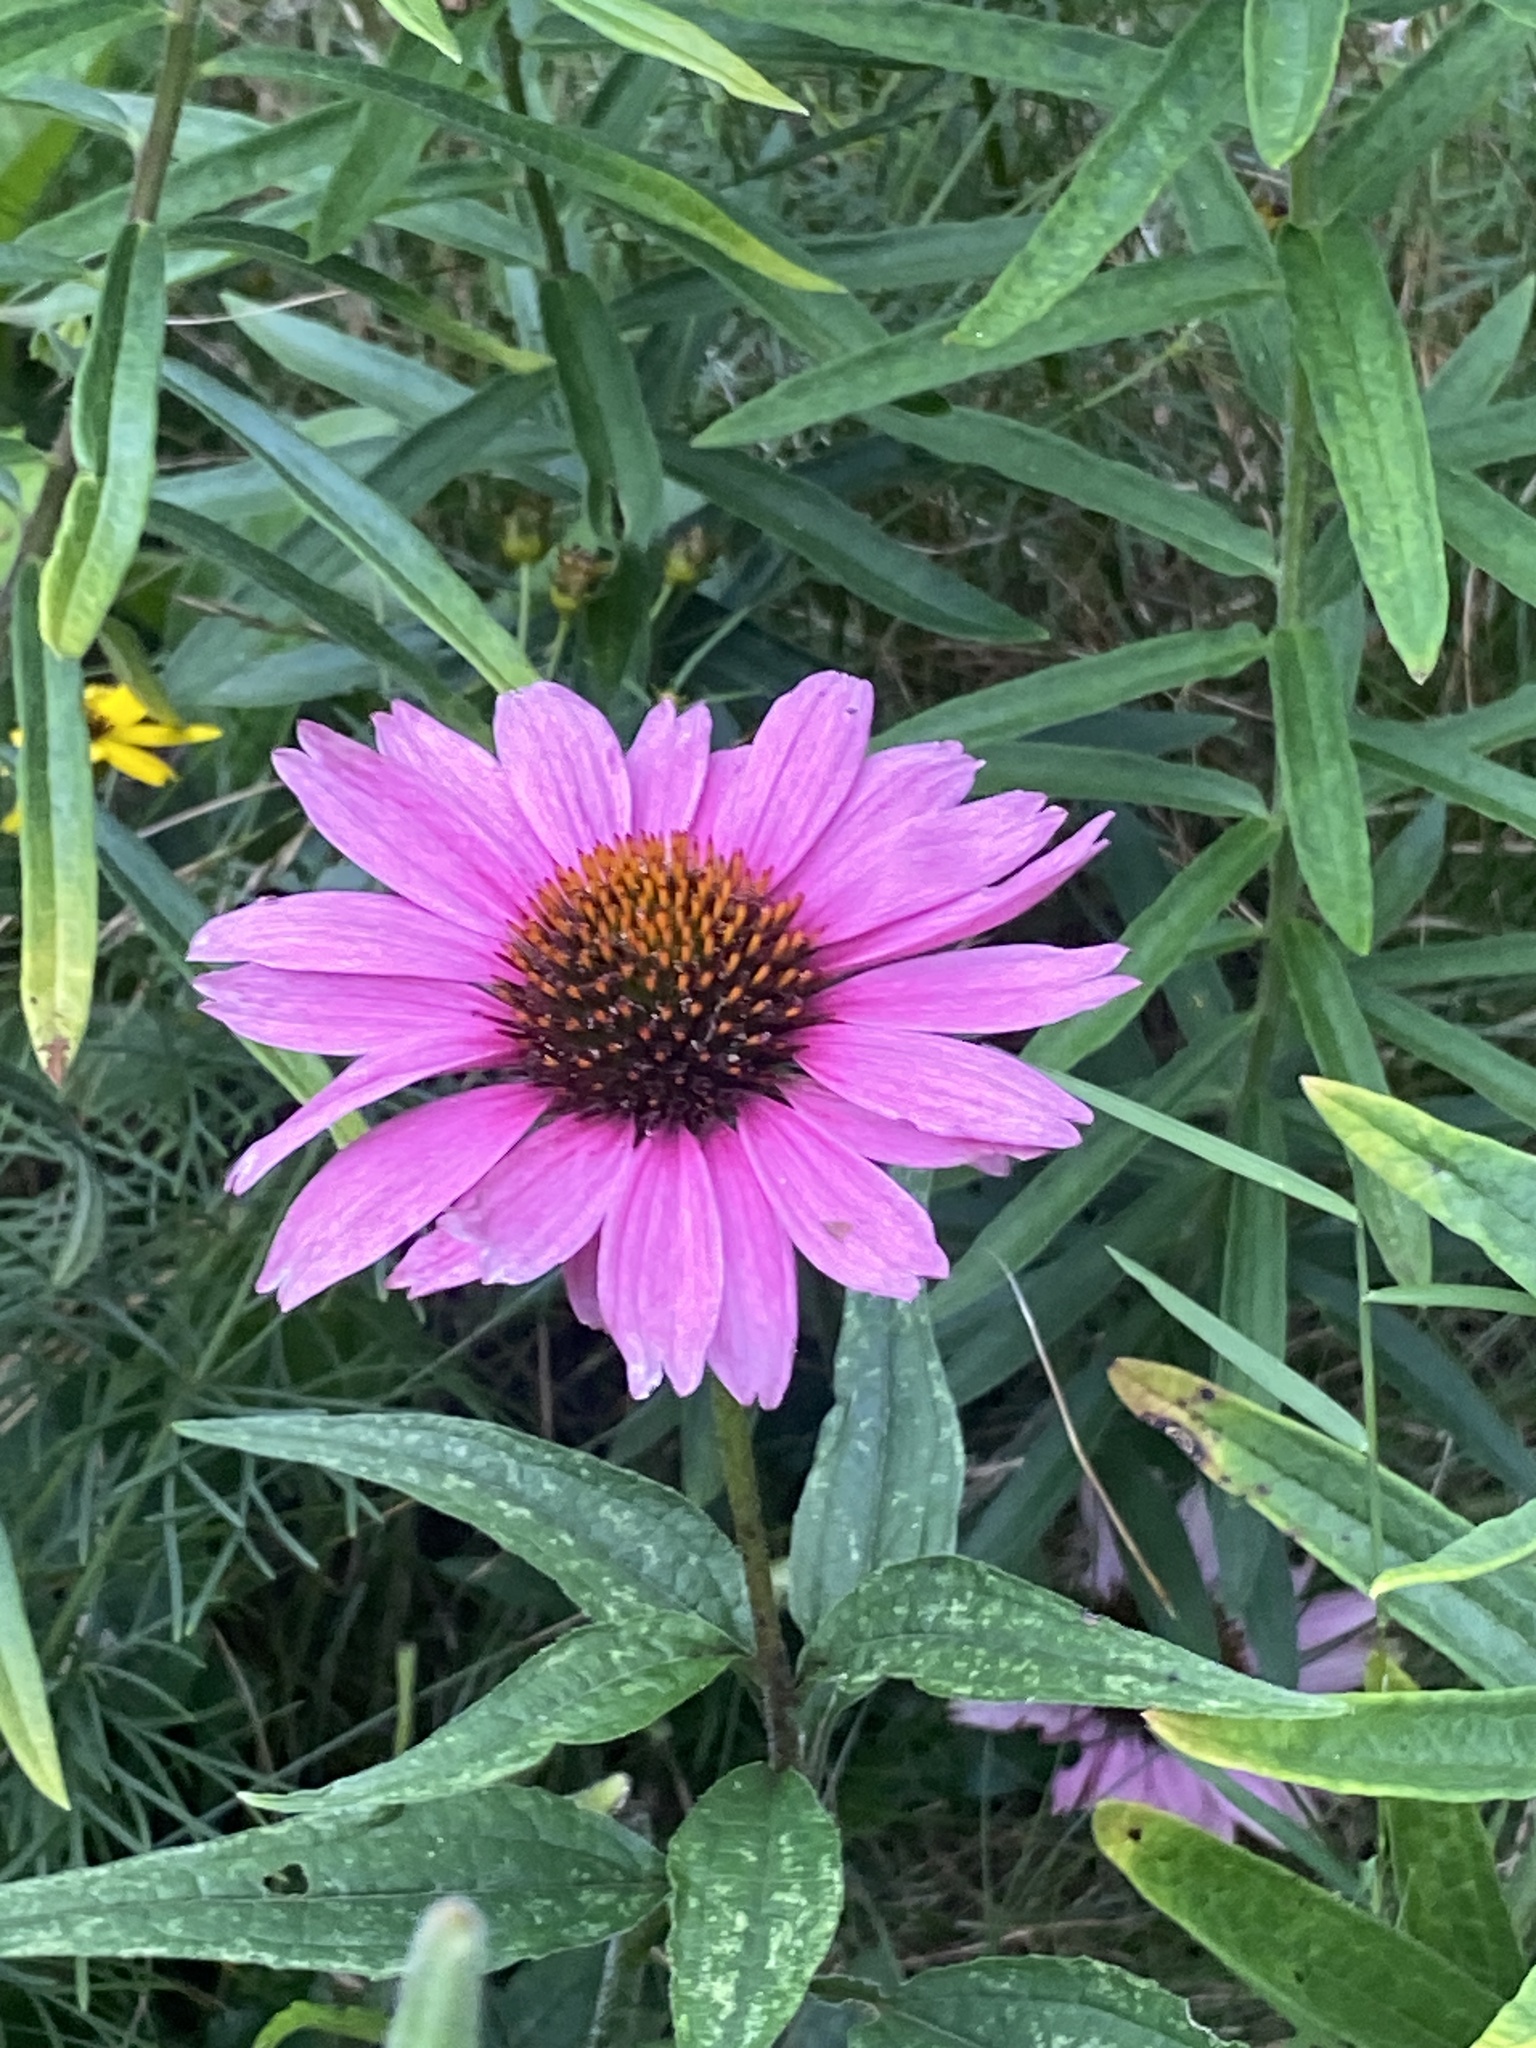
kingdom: Plantae
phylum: Tracheophyta
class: Magnoliopsida
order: Asterales
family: Asteraceae
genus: Echinacea
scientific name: Echinacea purpurea
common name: Broad-leaved purple coneflower
